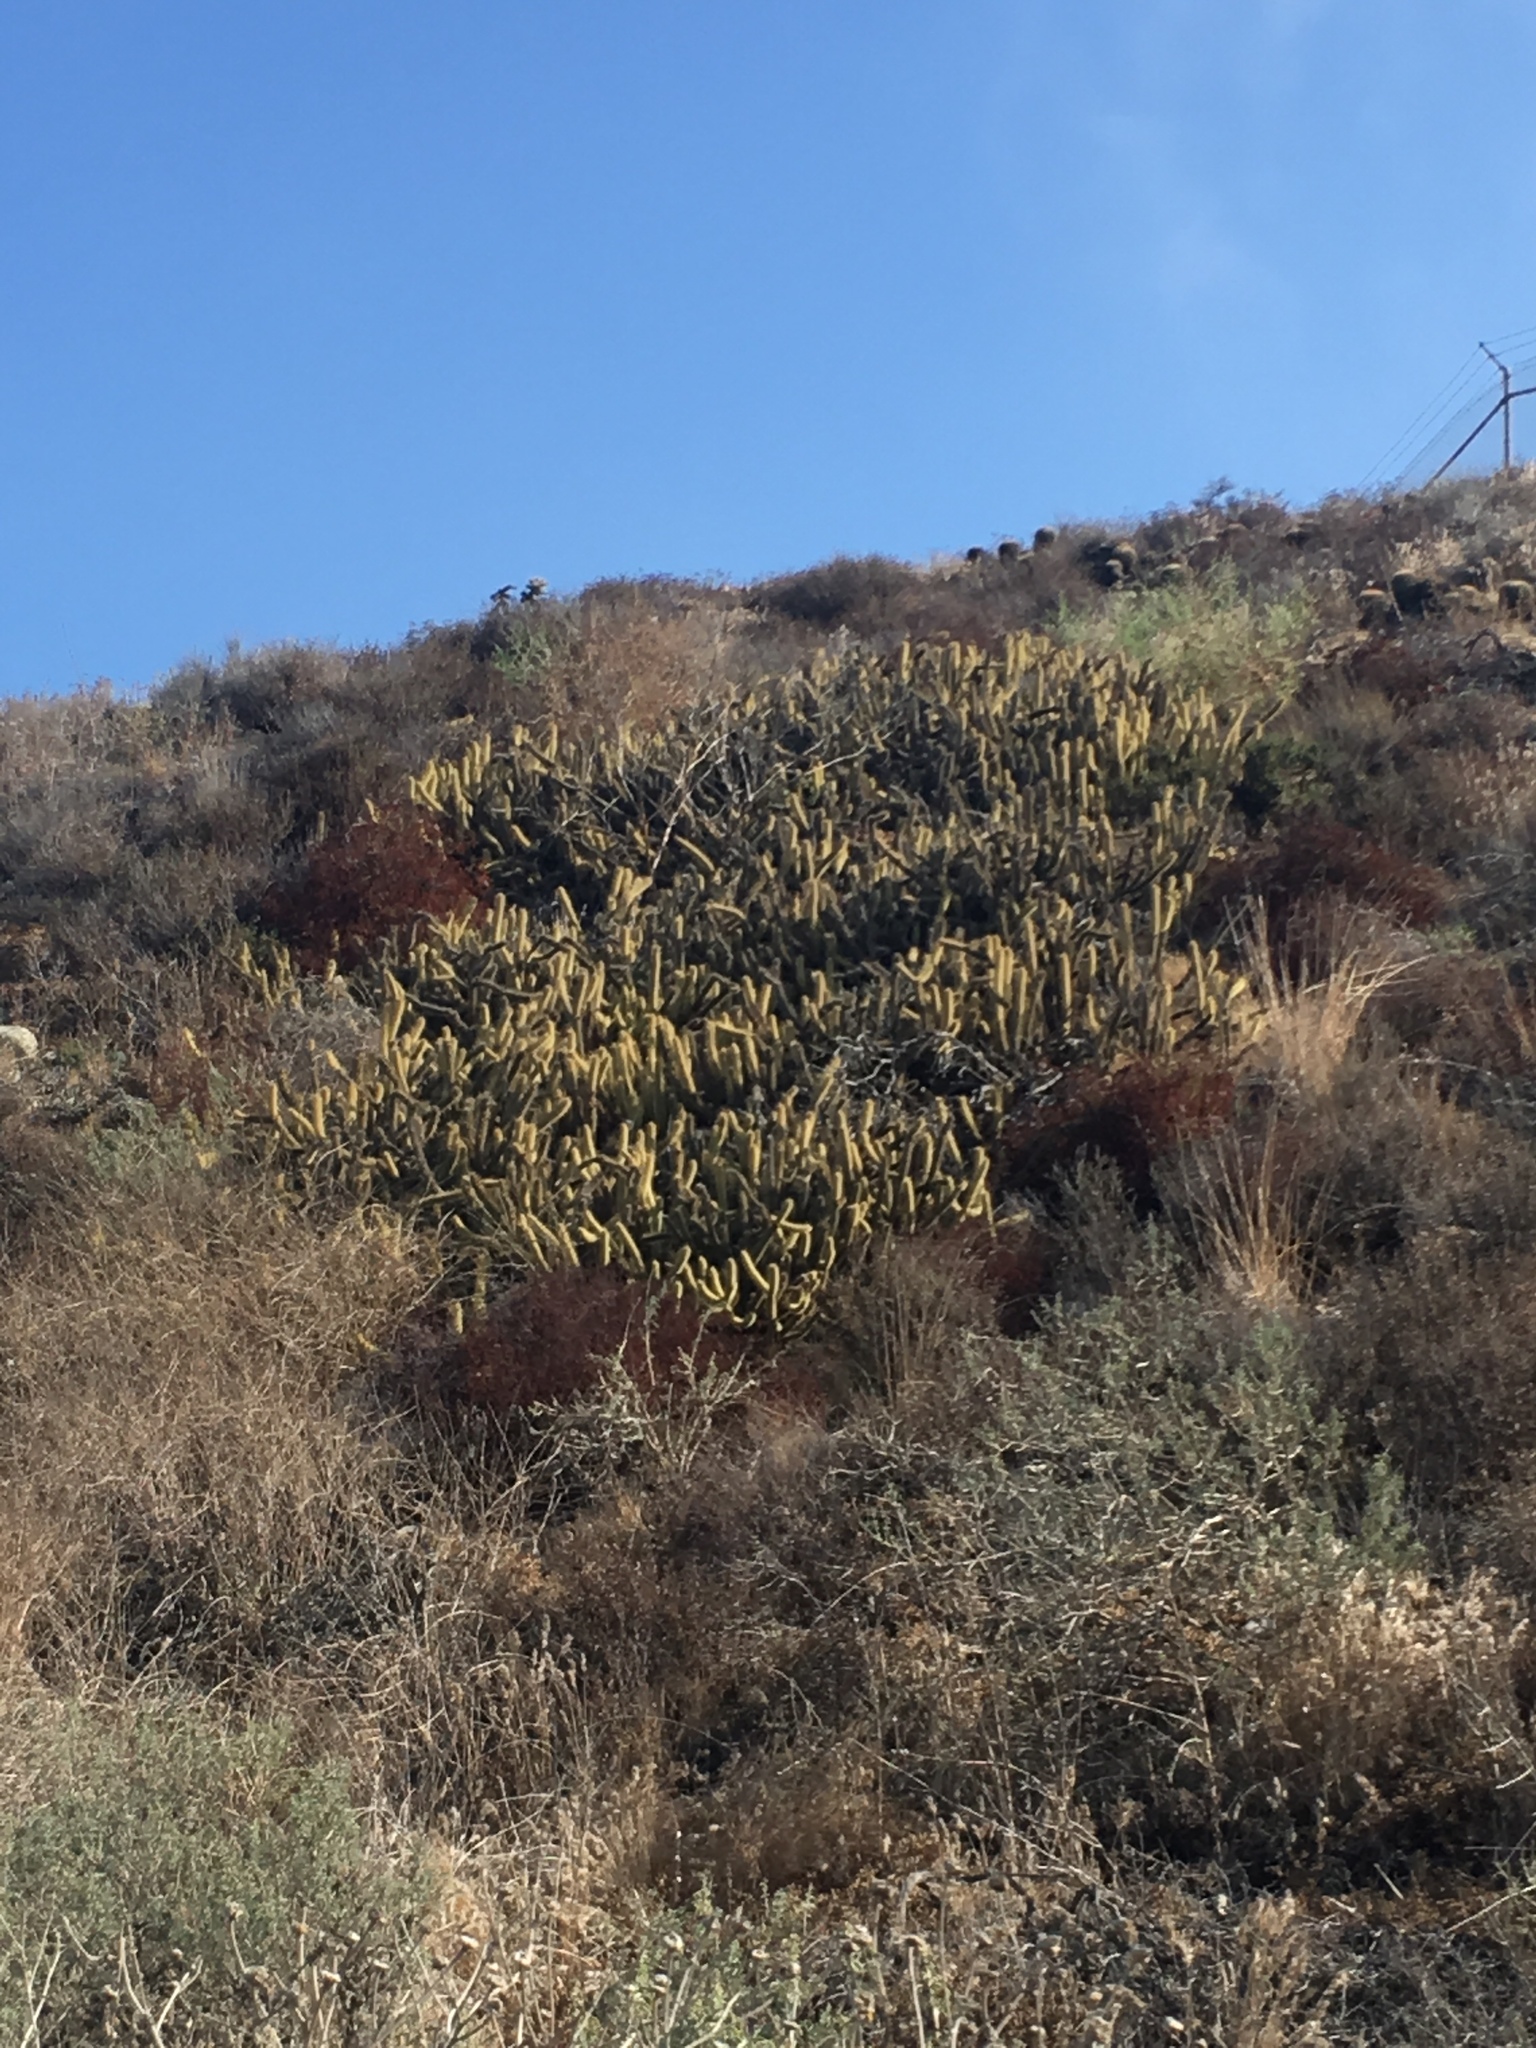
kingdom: Plantae
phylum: Tracheophyta
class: Magnoliopsida
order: Caryophyllales
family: Cactaceae
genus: Bergerocactus
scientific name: Bergerocactus emoryi
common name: Golden snakecactus
